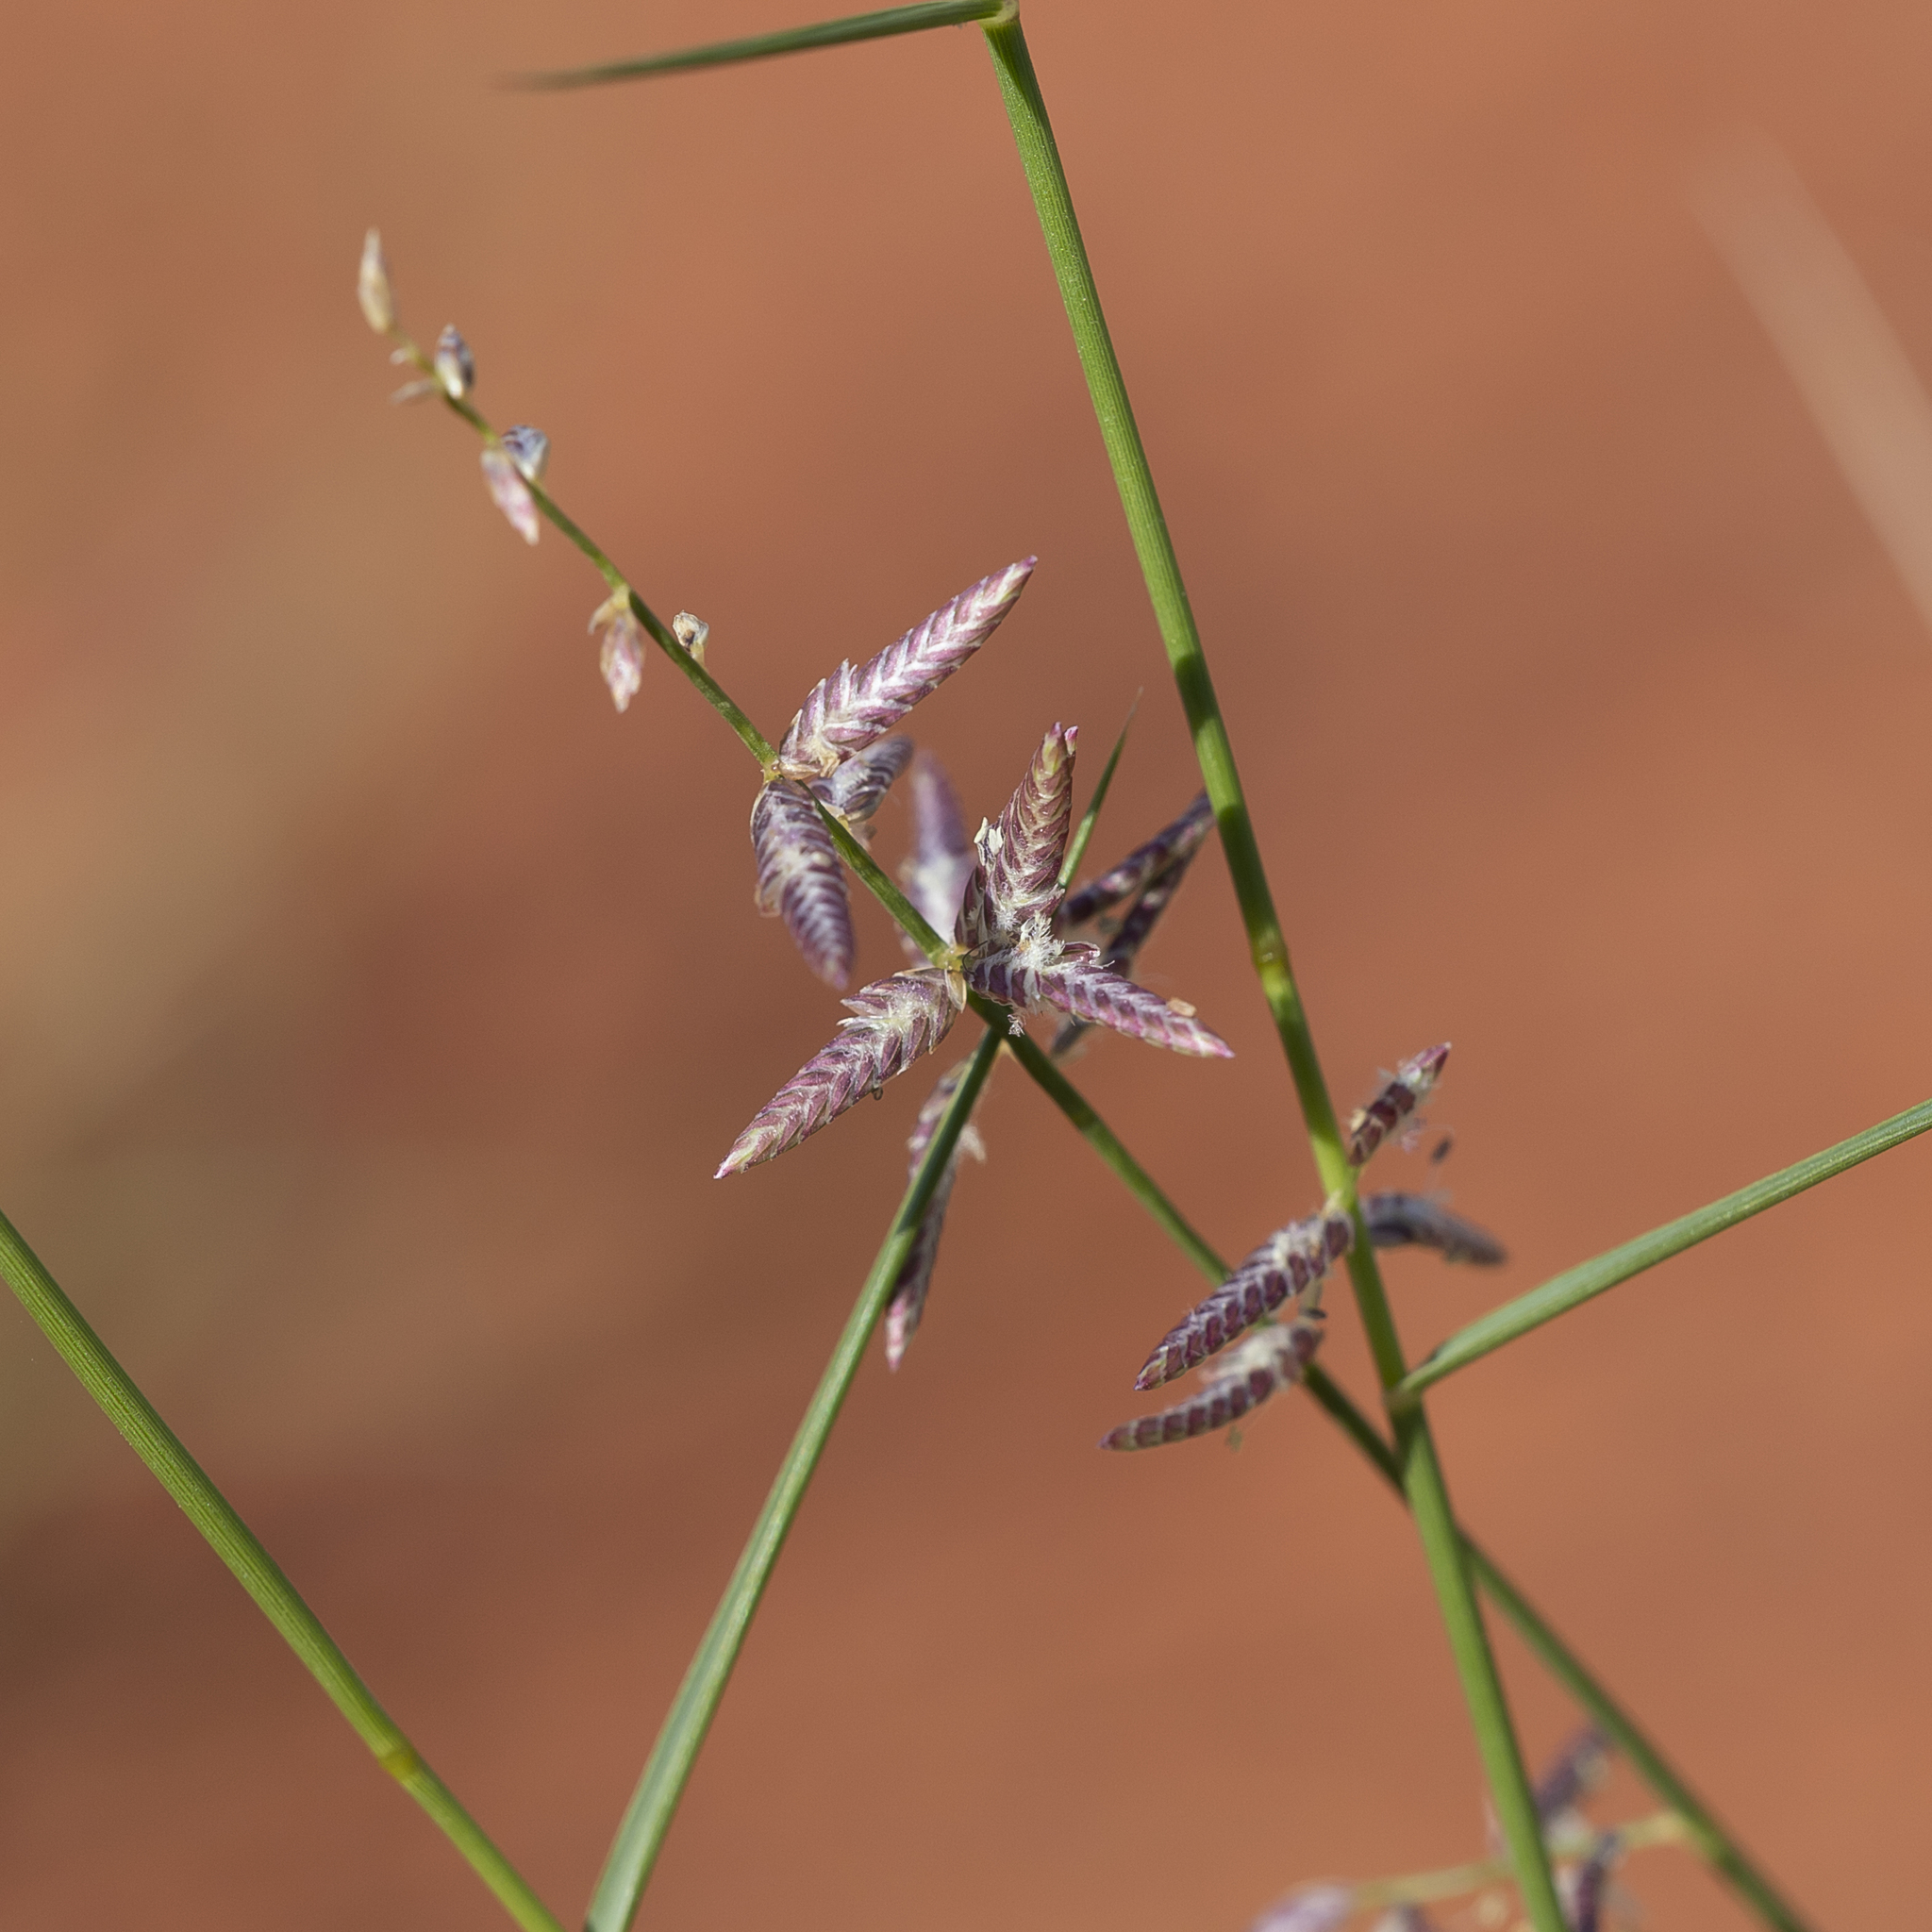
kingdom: Plantae
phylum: Tracheophyta
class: Liliopsida
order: Poales
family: Poaceae
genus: Eragrostis
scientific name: Eragrostis laniflora
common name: Woolly-flower lovegrass
